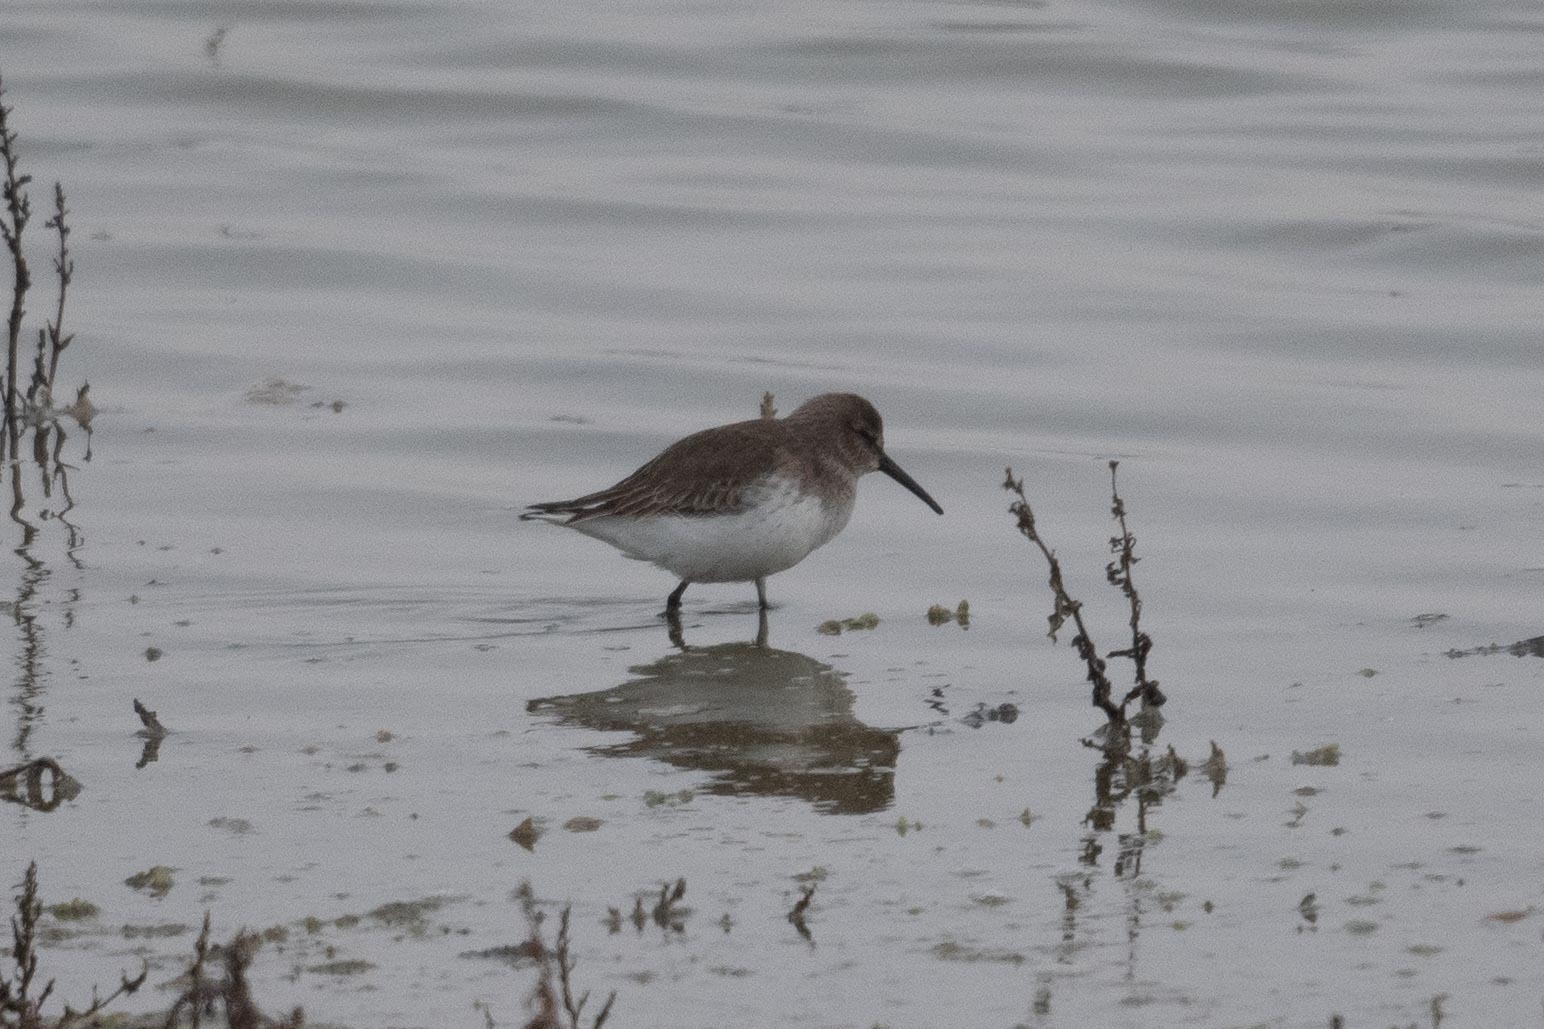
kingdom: Animalia
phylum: Chordata
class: Aves
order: Charadriiformes
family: Scolopacidae
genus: Calidris
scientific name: Calidris alpina
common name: Dunlin
